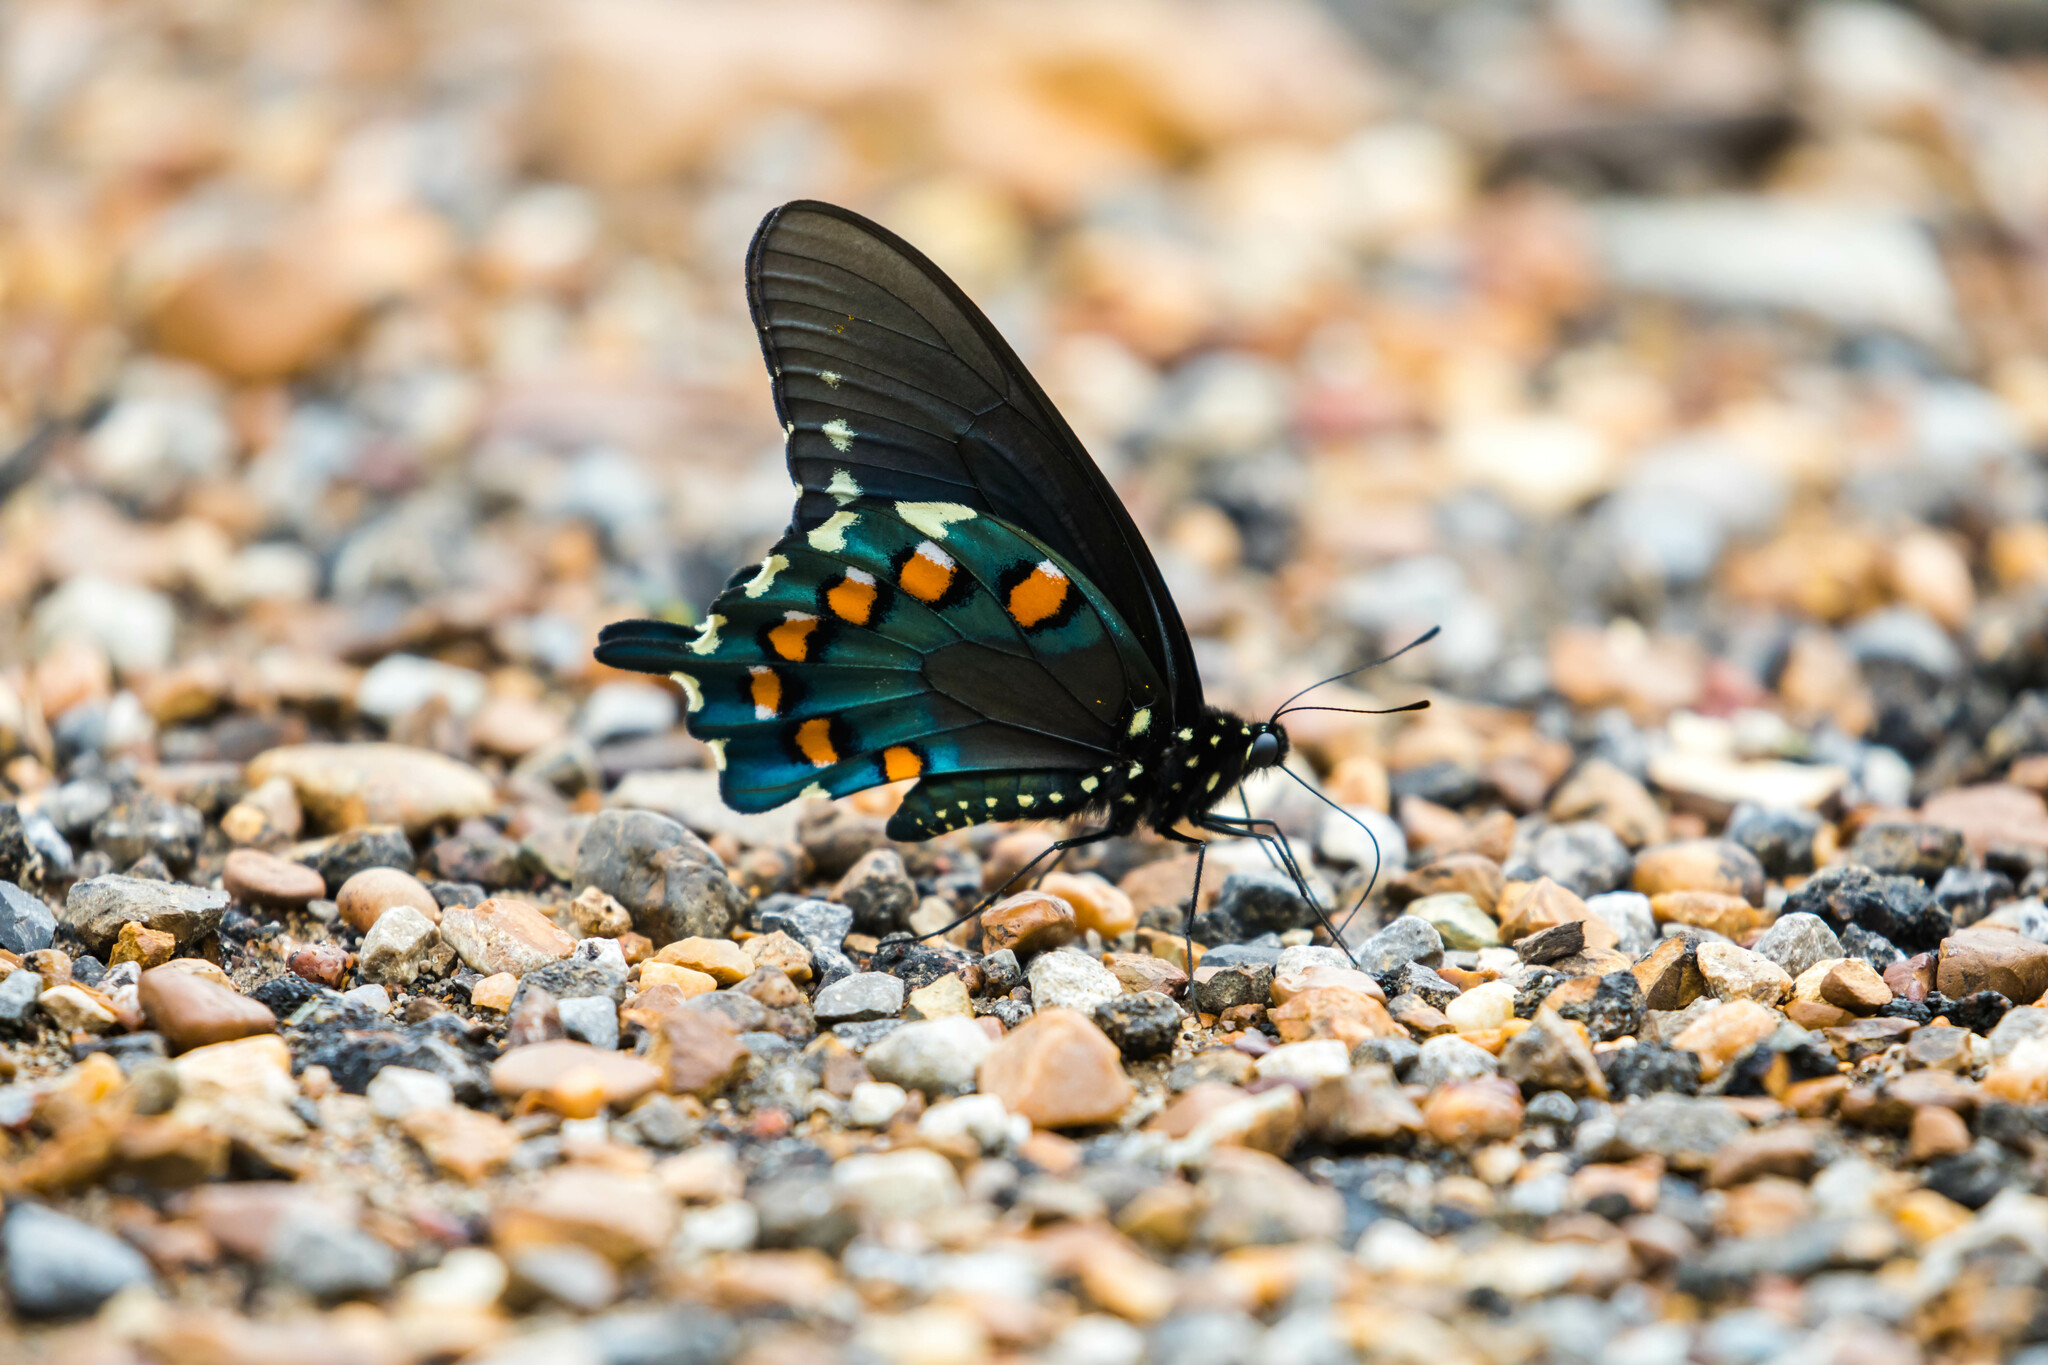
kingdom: Animalia
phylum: Arthropoda
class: Insecta
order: Lepidoptera
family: Papilionidae
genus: Battus
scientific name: Battus philenor
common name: Pipevine swallowtail
